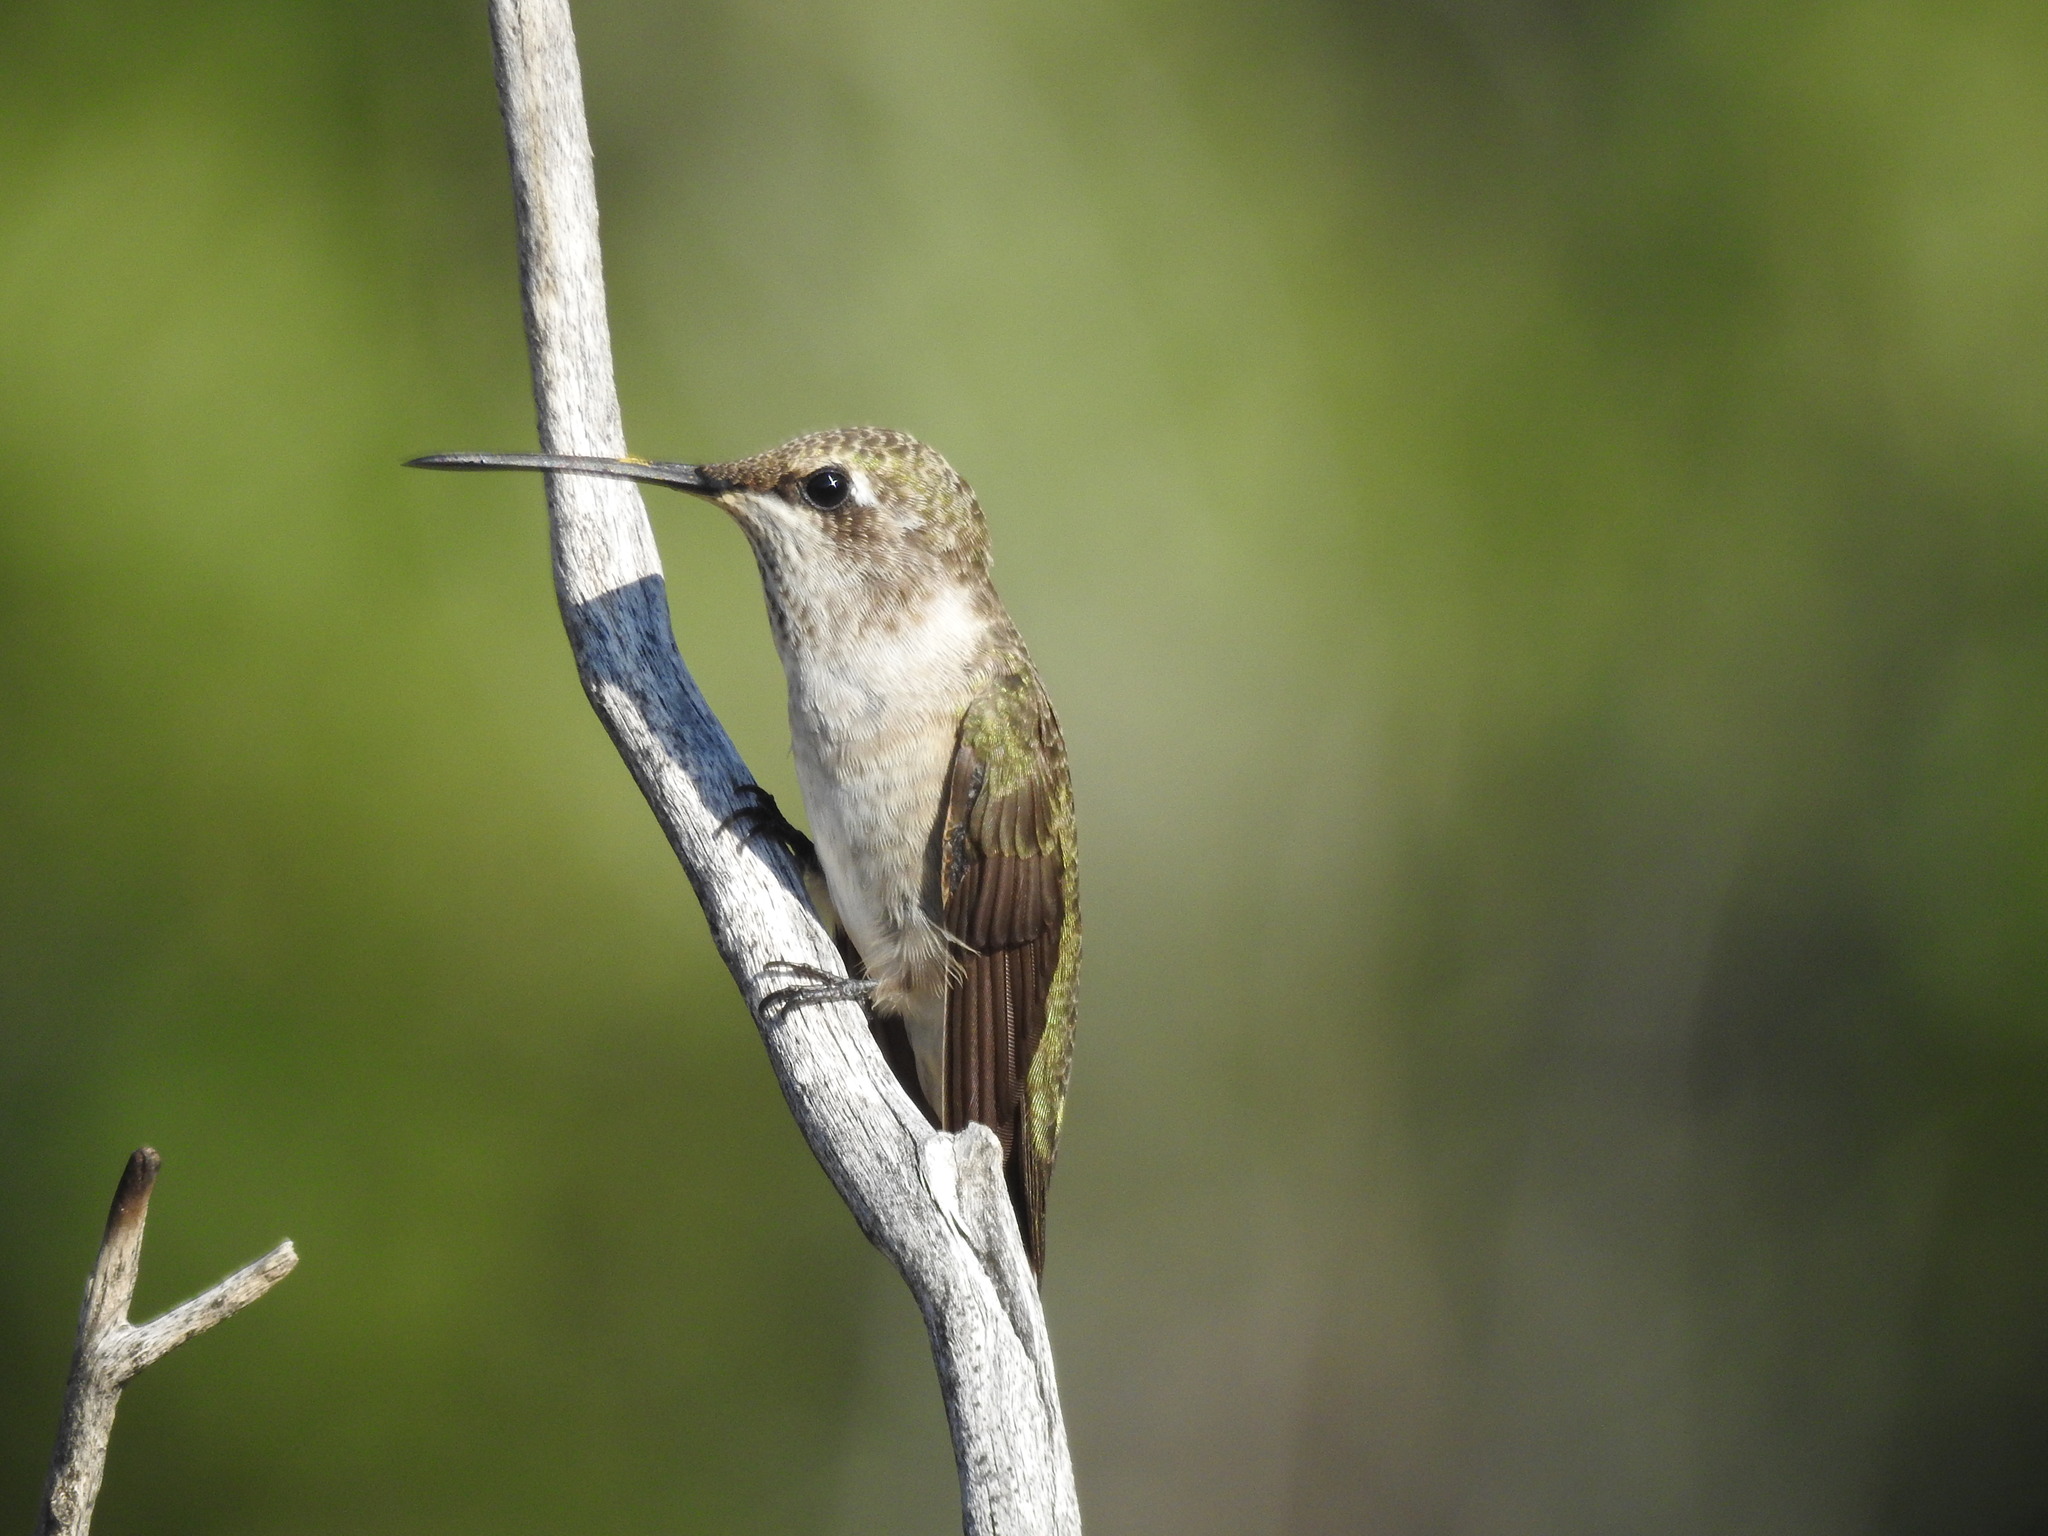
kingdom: Animalia
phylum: Chordata
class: Aves
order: Apodiformes
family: Trochilidae
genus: Archilochus
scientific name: Archilochus alexandri
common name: Black-chinned hummingbird
